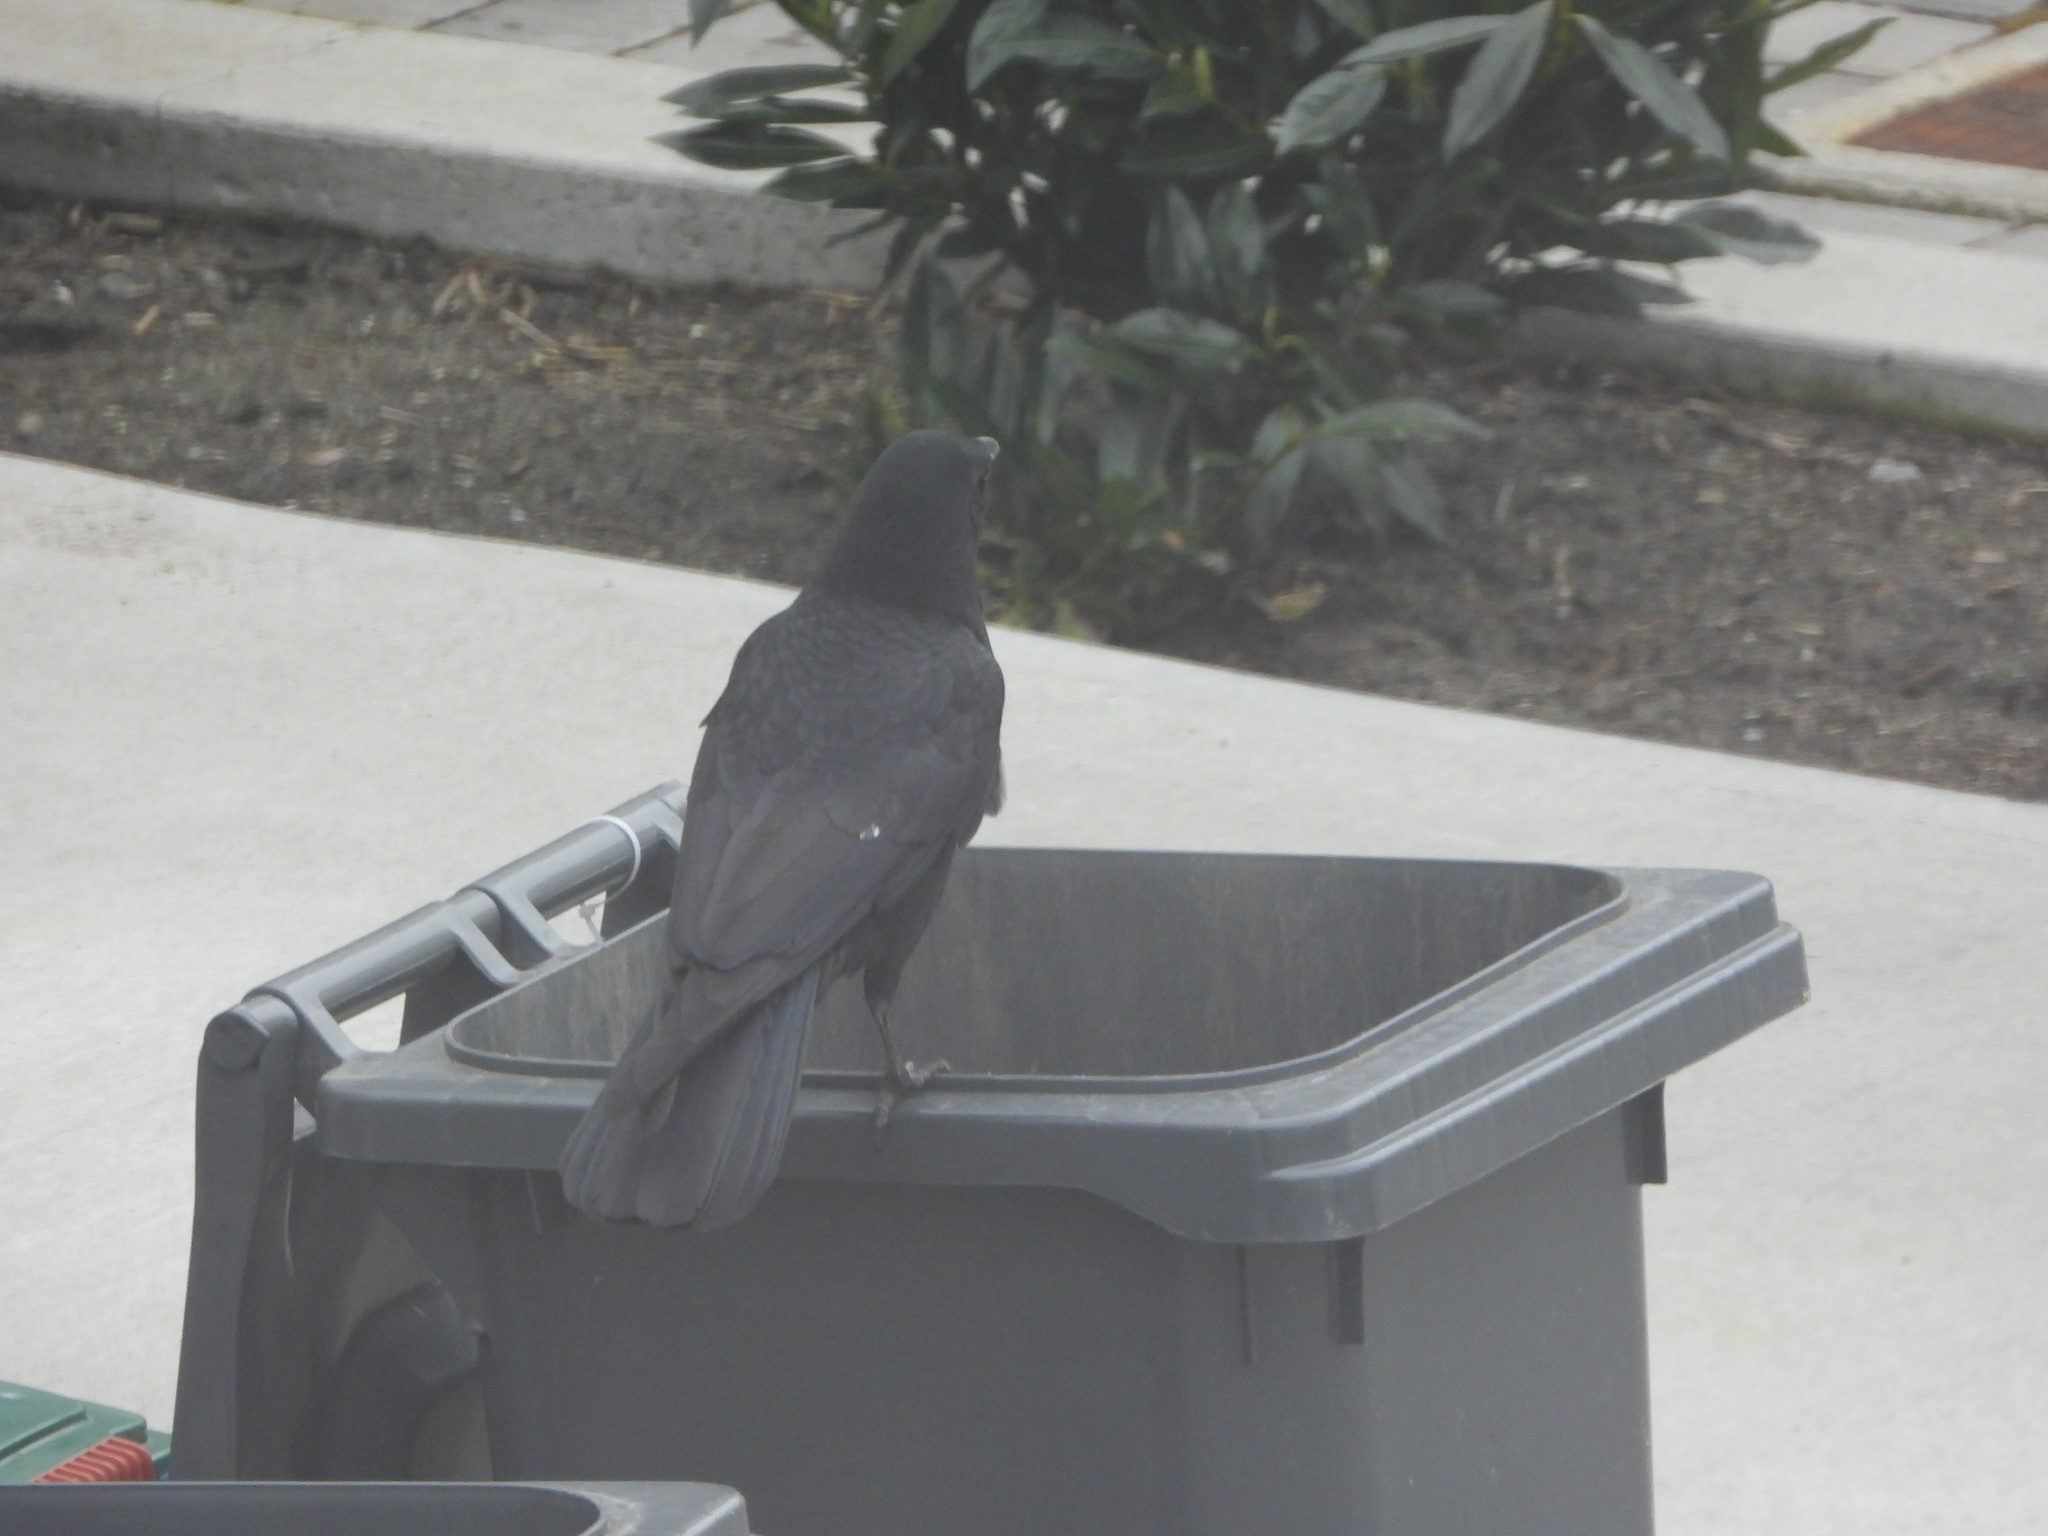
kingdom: Animalia
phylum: Chordata
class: Aves
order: Passeriformes
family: Corvidae
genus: Corvus
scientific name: Corvus brachyrhynchos
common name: American crow
